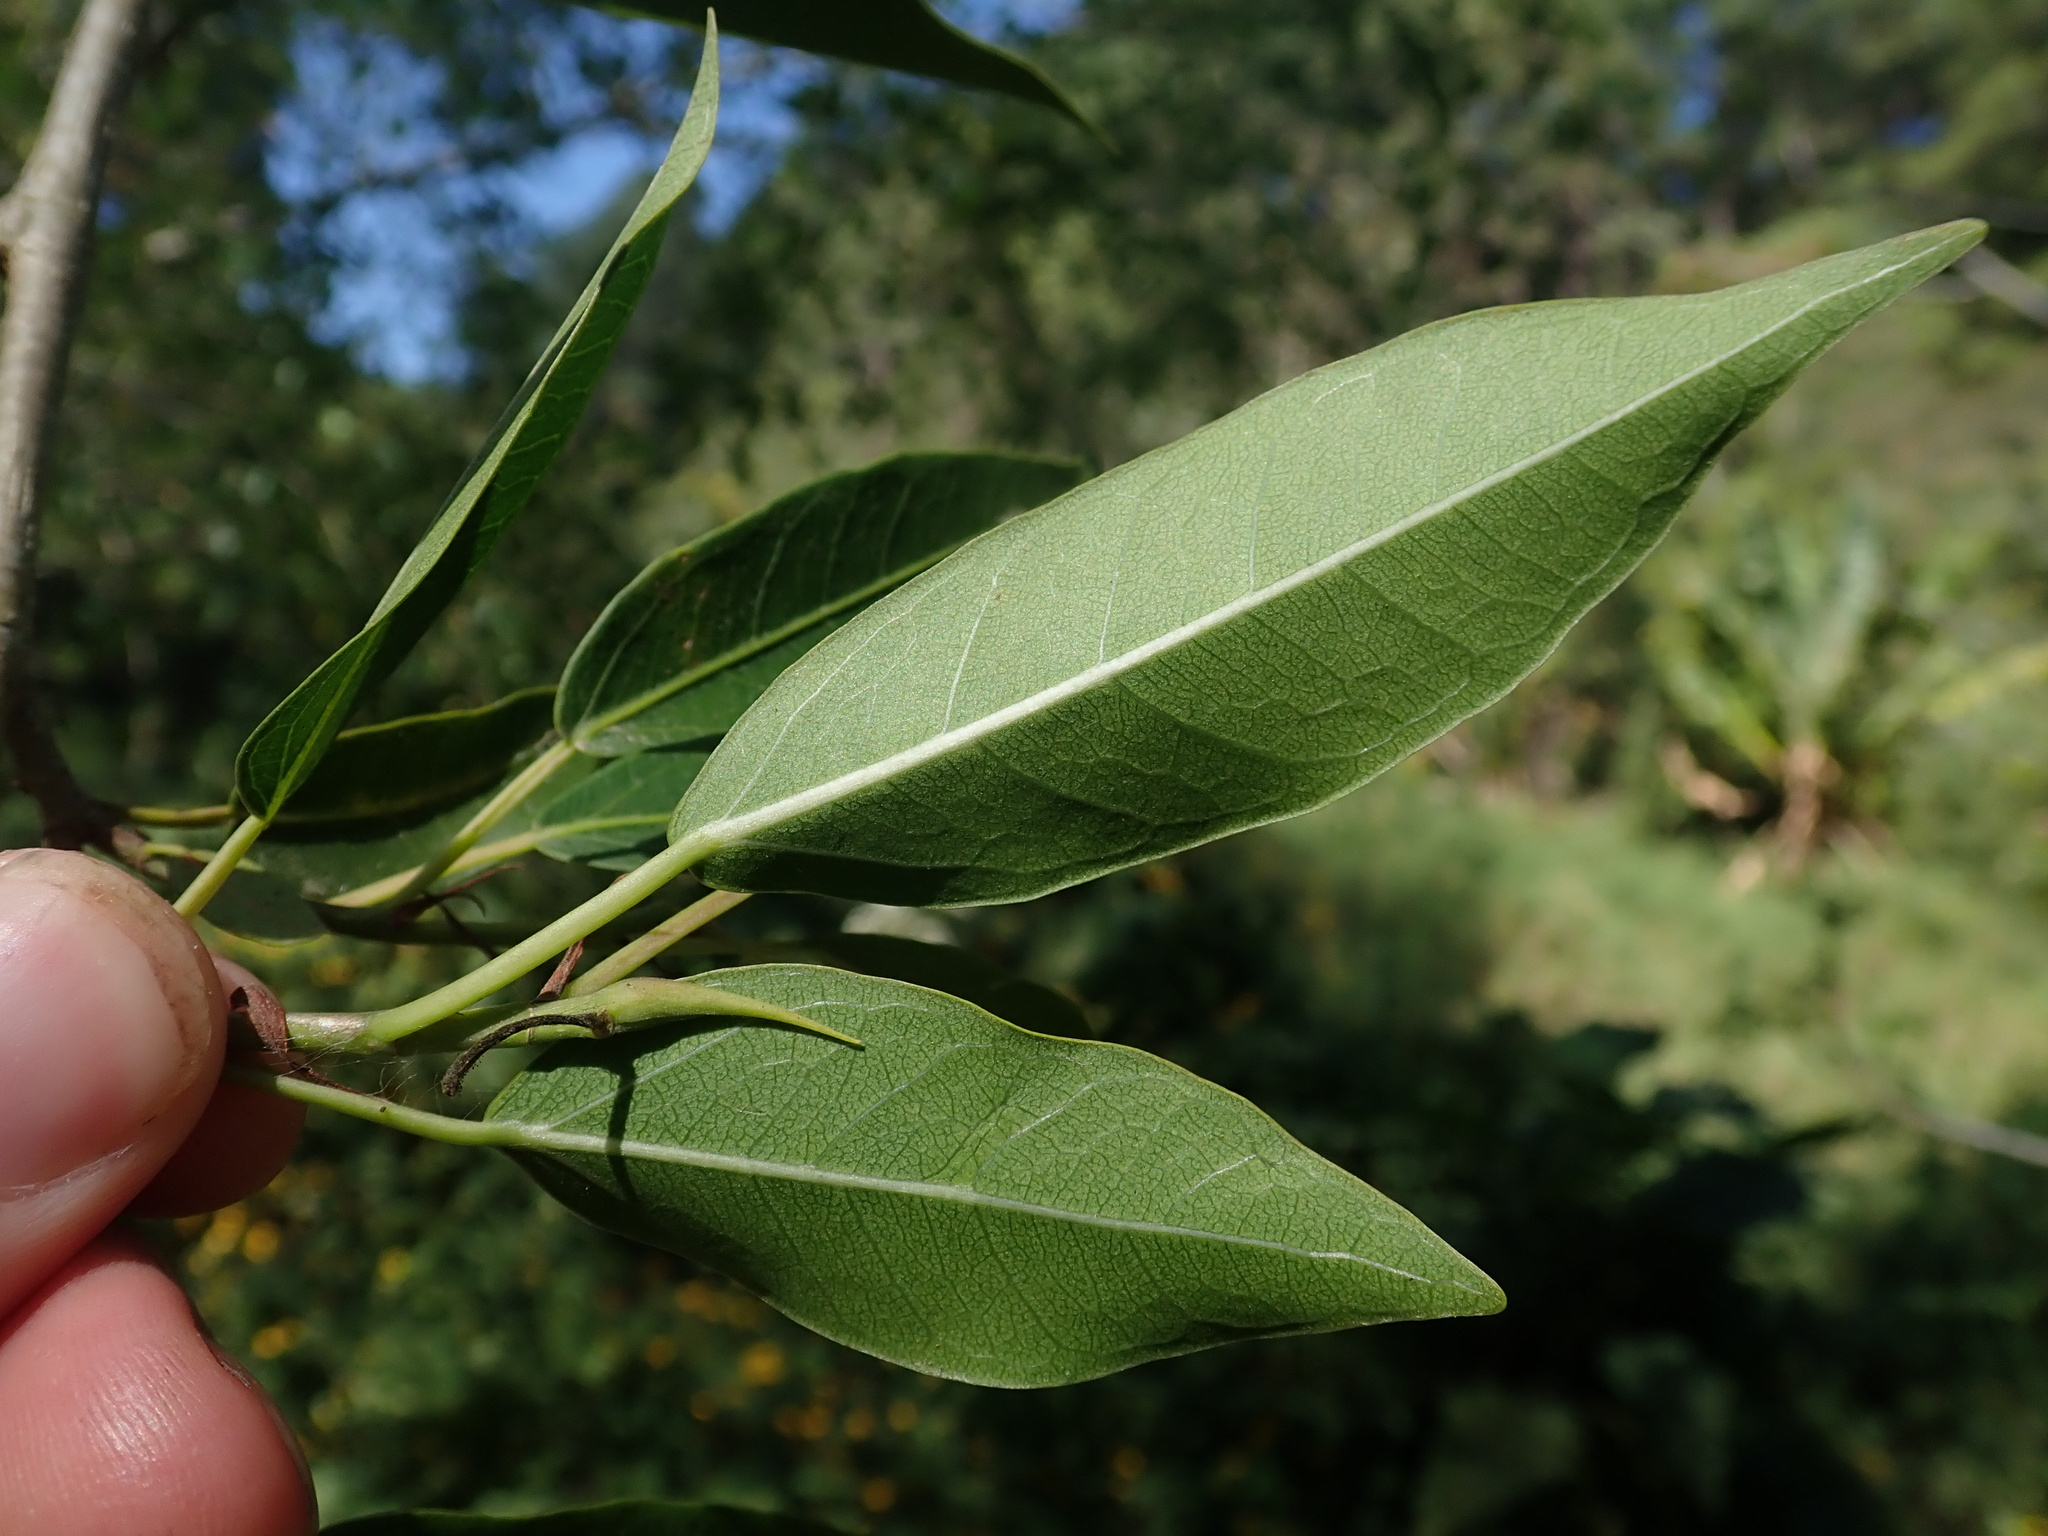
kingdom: Plantae
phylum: Tracheophyta
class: Magnoliopsida
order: Rosales
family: Moraceae
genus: Ficus
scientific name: Ficus pertusa
